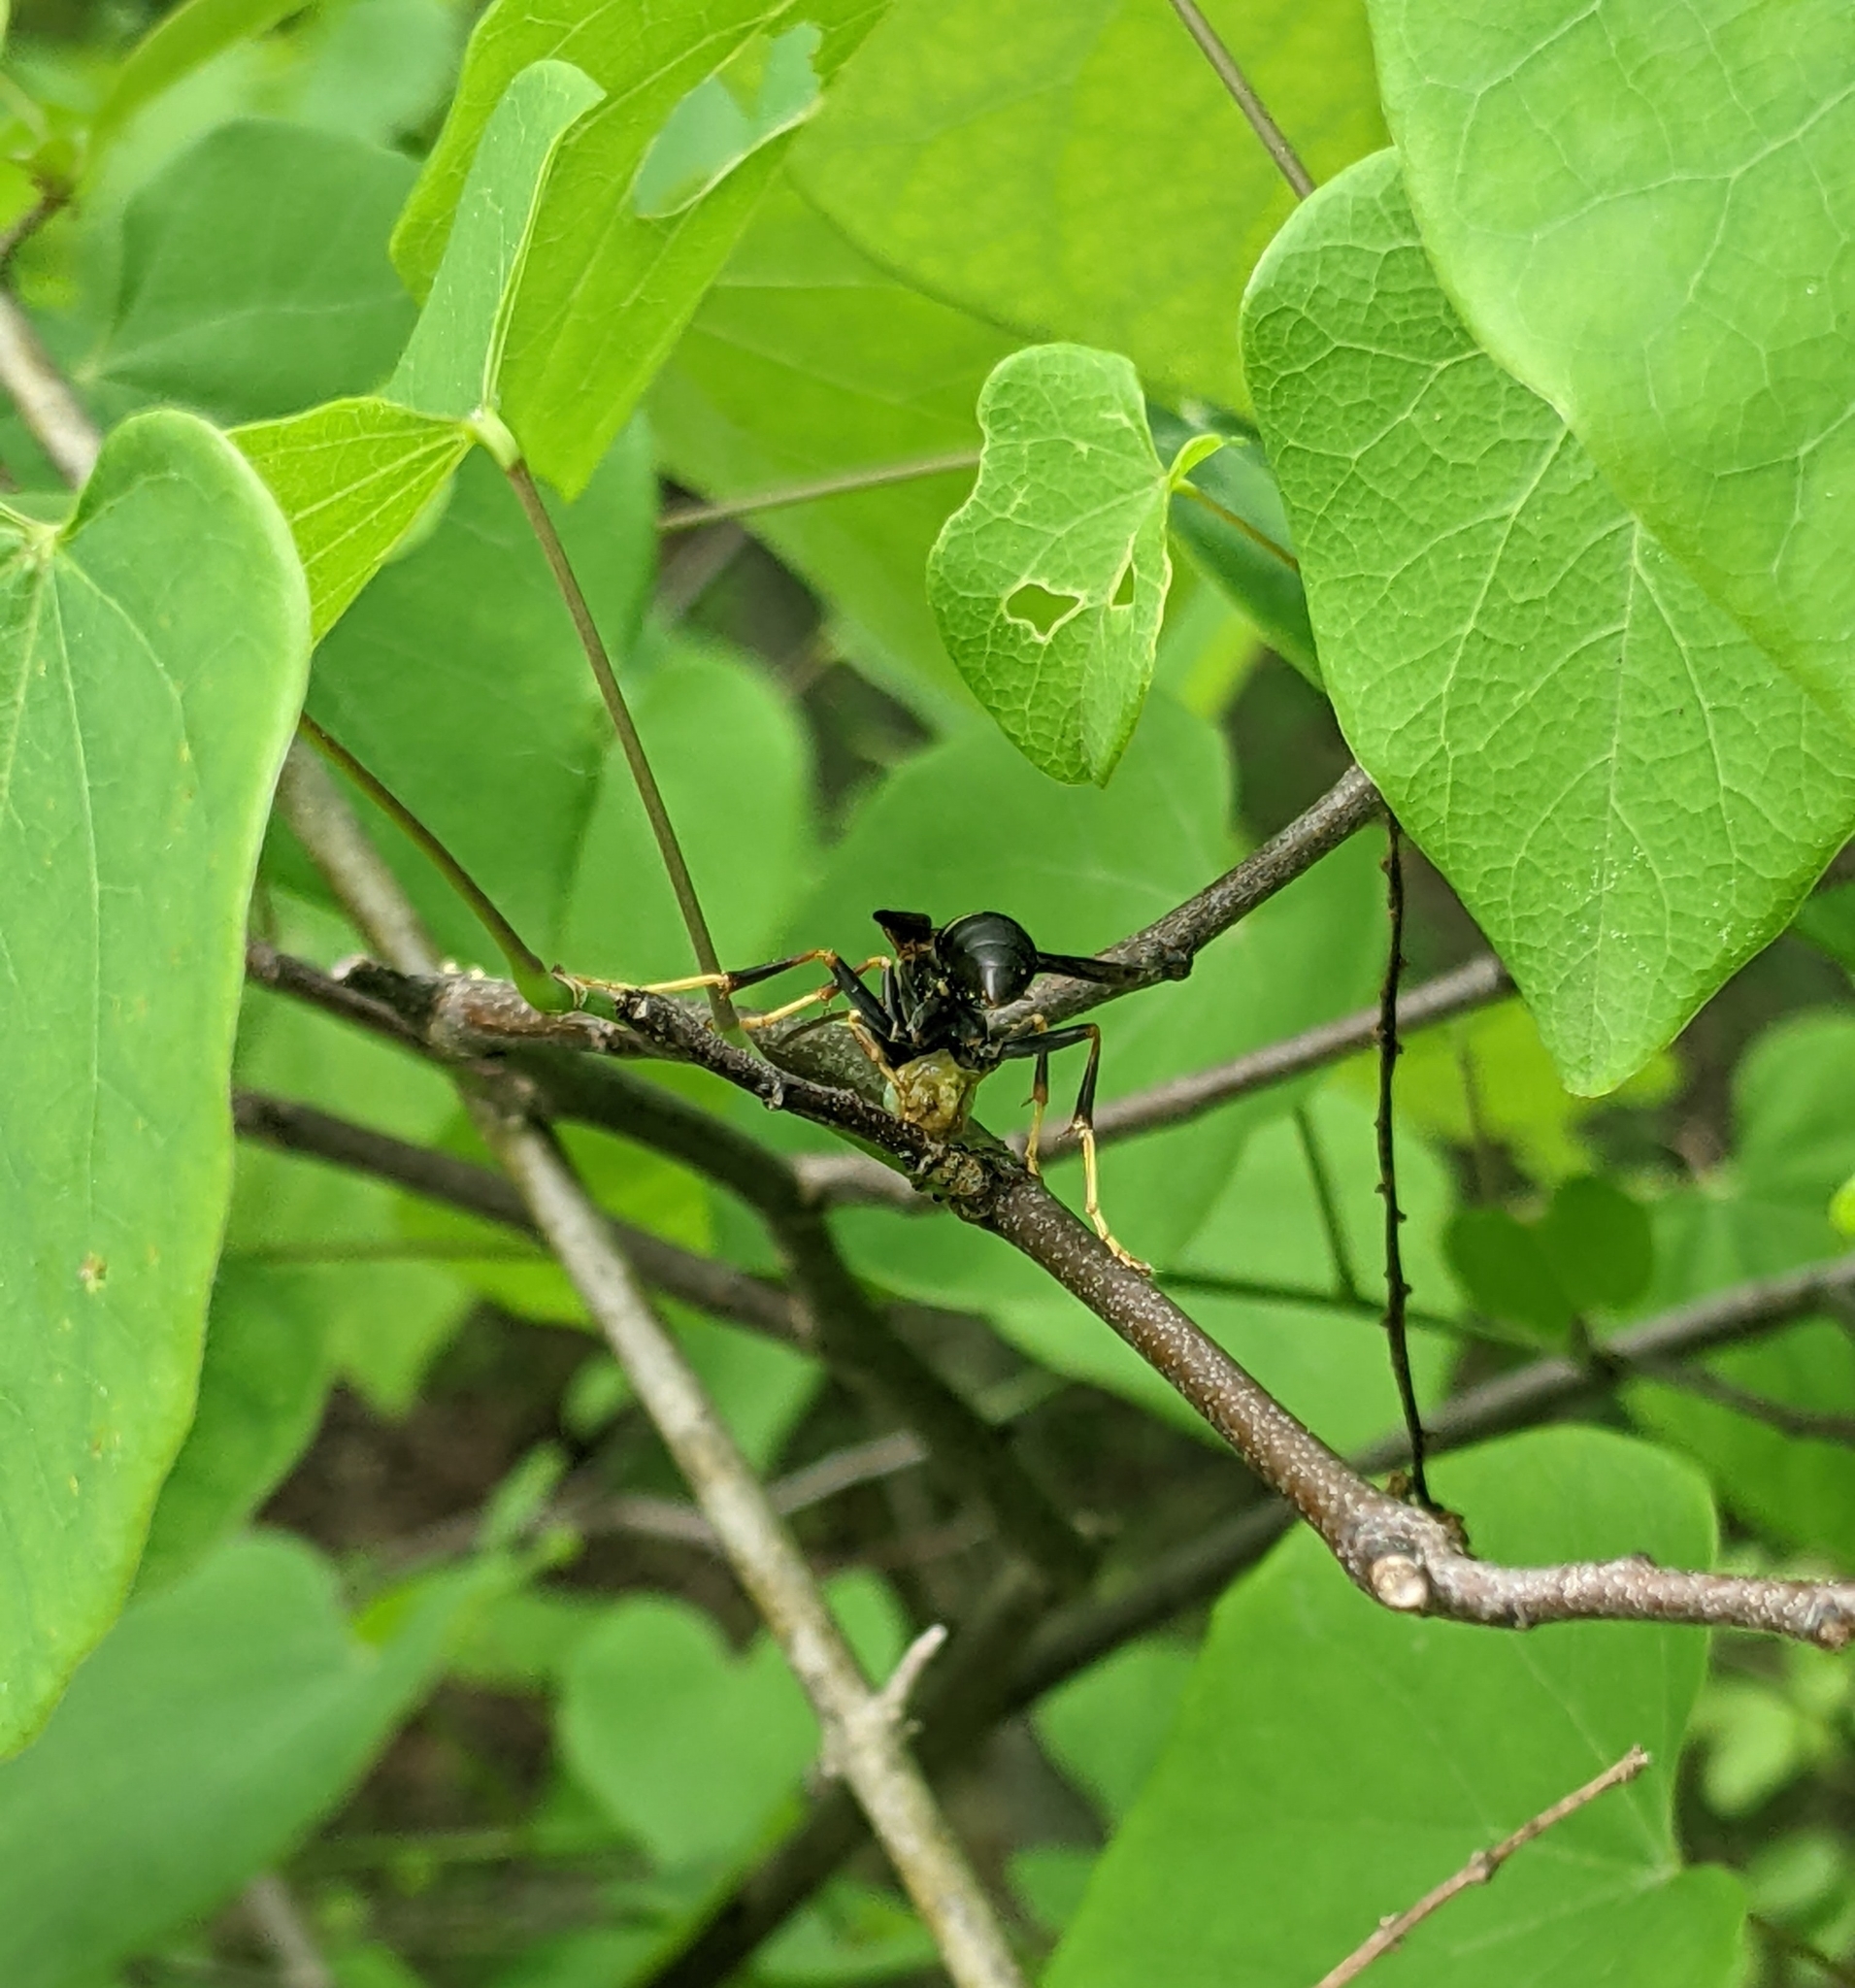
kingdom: Animalia
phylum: Arthropoda
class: Insecta
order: Hymenoptera
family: Eumenidae
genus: Polistes
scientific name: Polistes fuscatus
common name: Dark paper wasp
